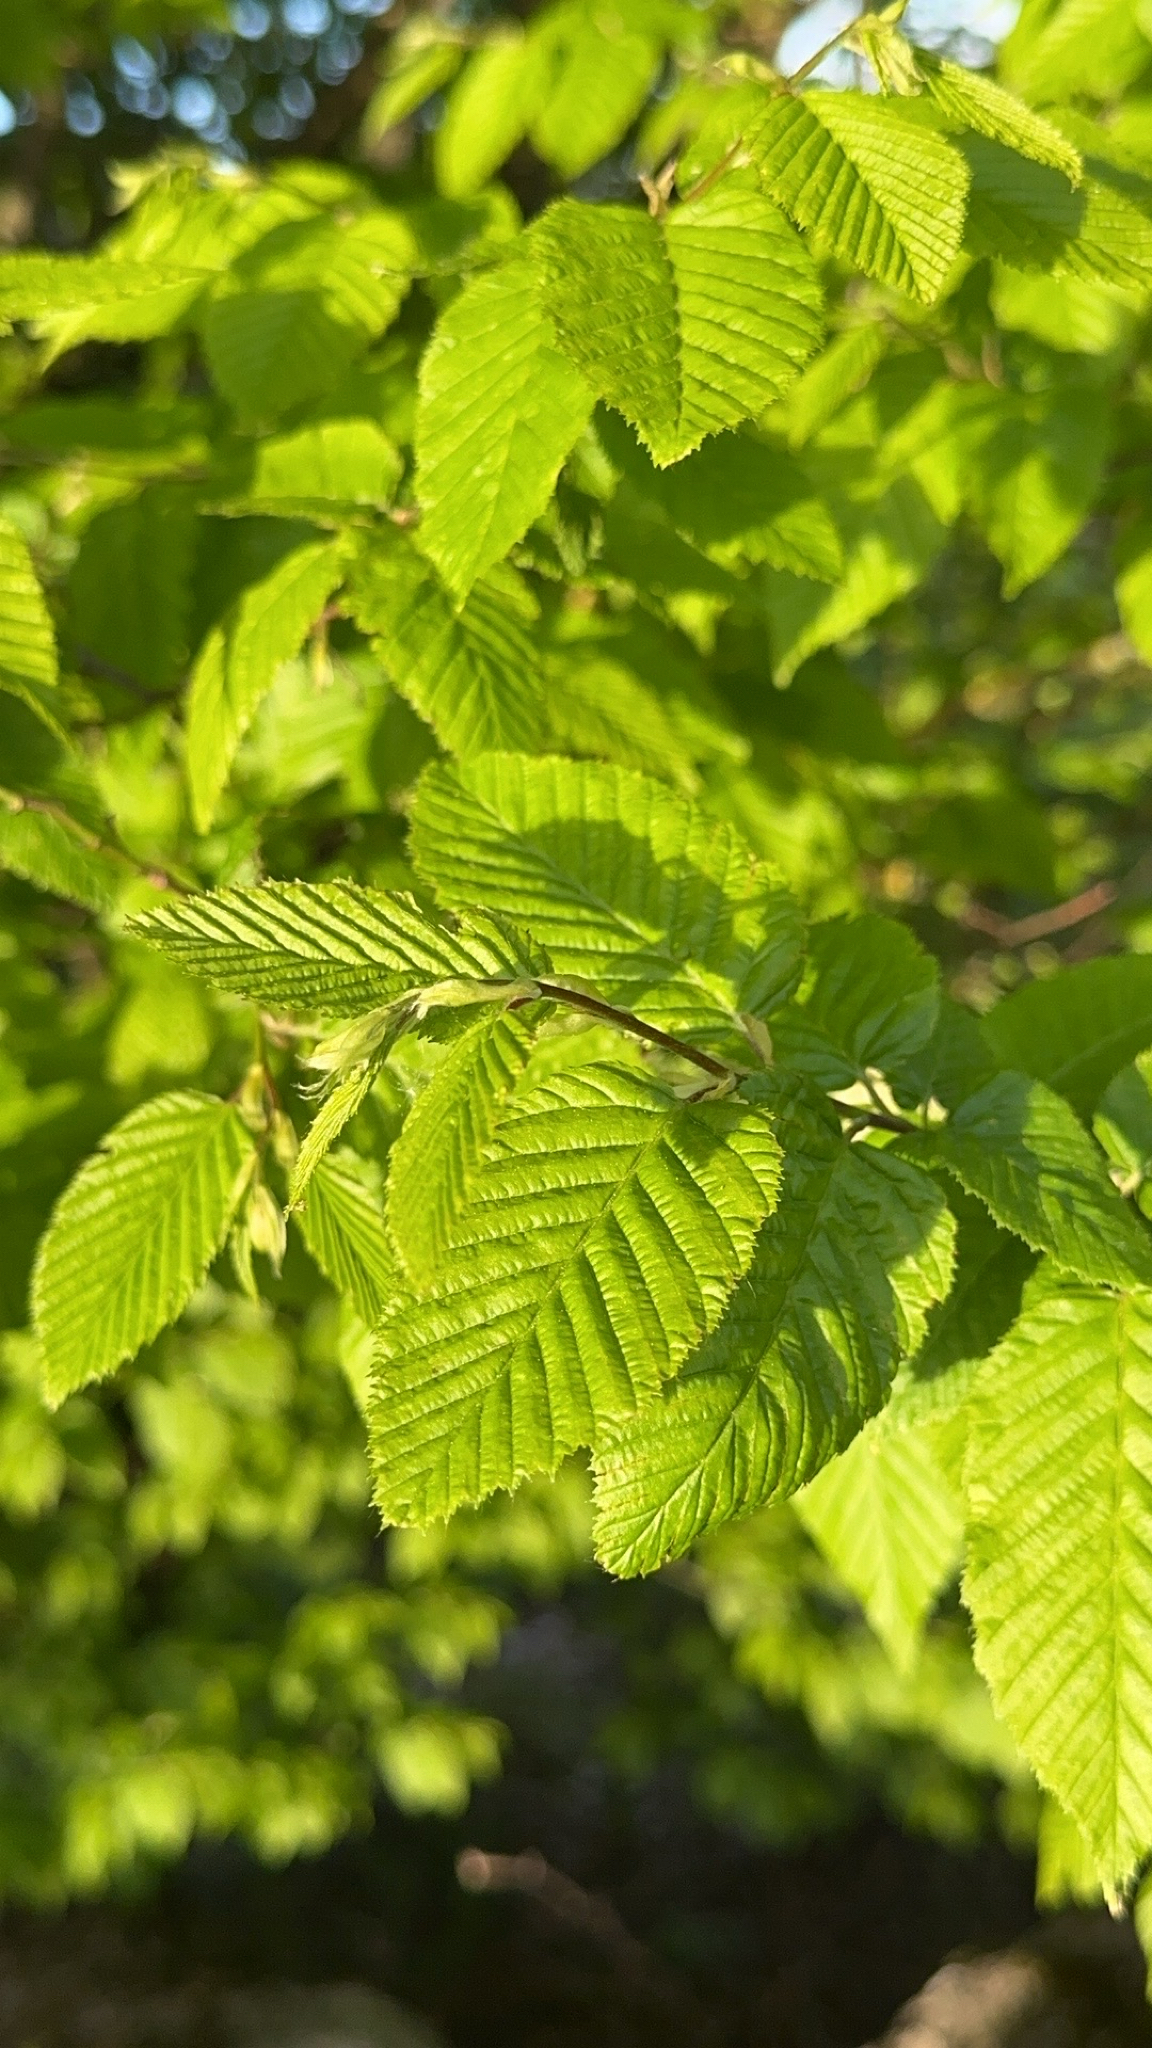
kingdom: Plantae
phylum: Tracheophyta
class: Magnoliopsida
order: Fagales
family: Betulaceae
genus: Carpinus
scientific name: Carpinus betulus
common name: Hornbeam
